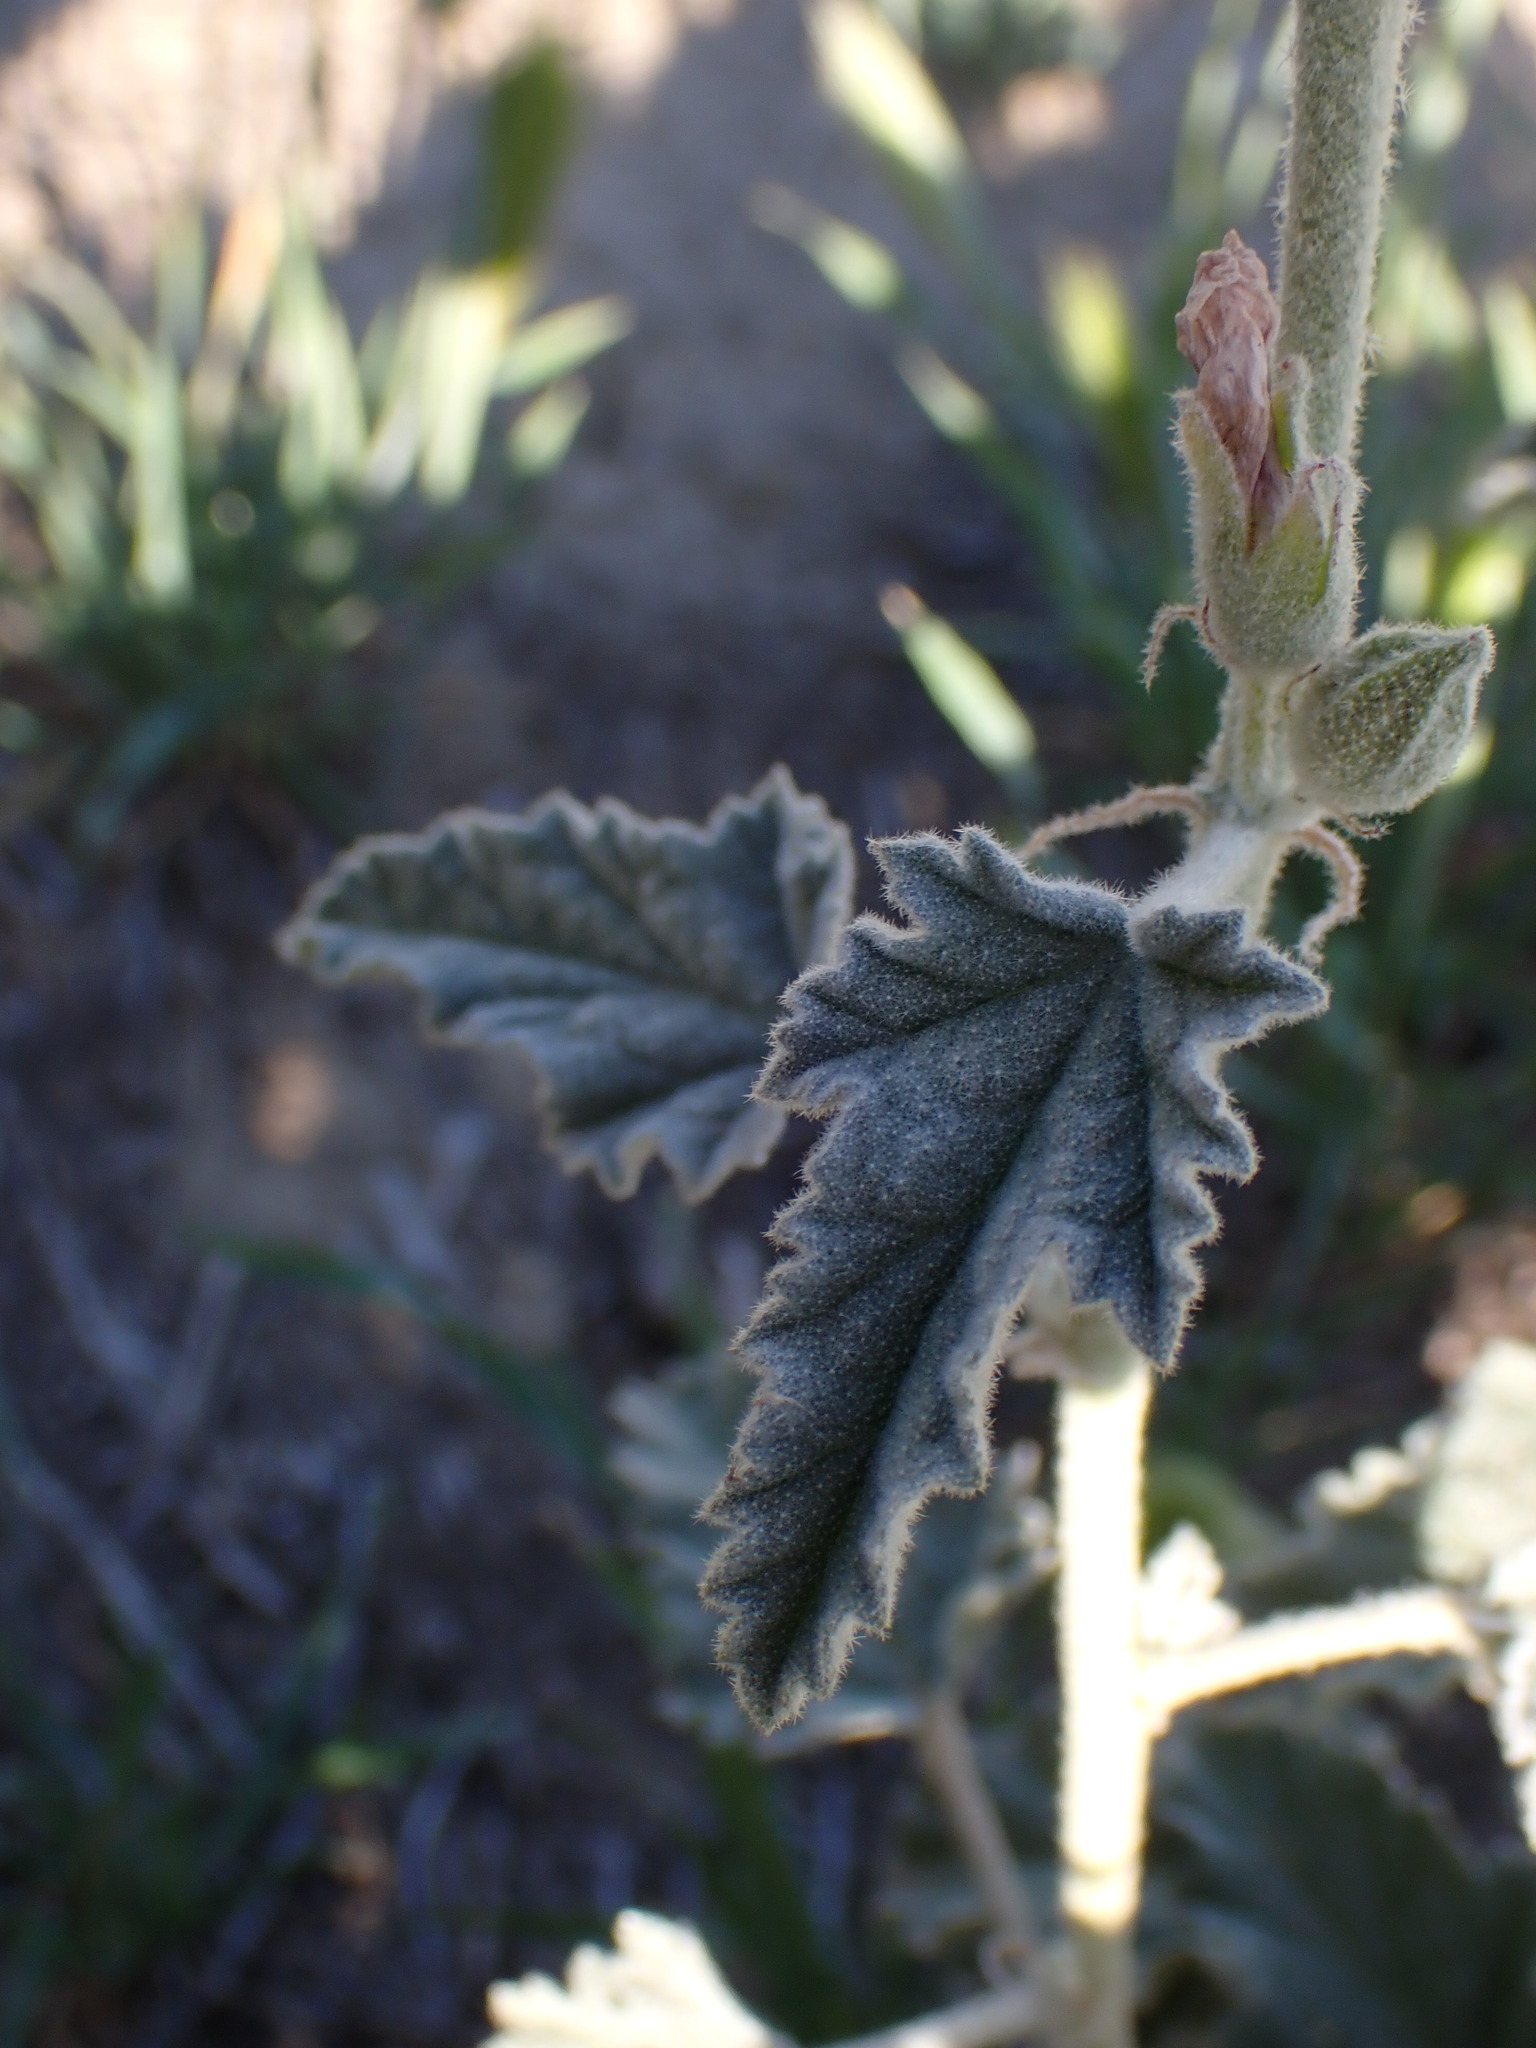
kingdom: Plantae
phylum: Tracheophyta
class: Magnoliopsida
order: Malvales
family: Malvaceae
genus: Sphaeralcea
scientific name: Sphaeralcea ambigua
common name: Apricot globe-mallow
